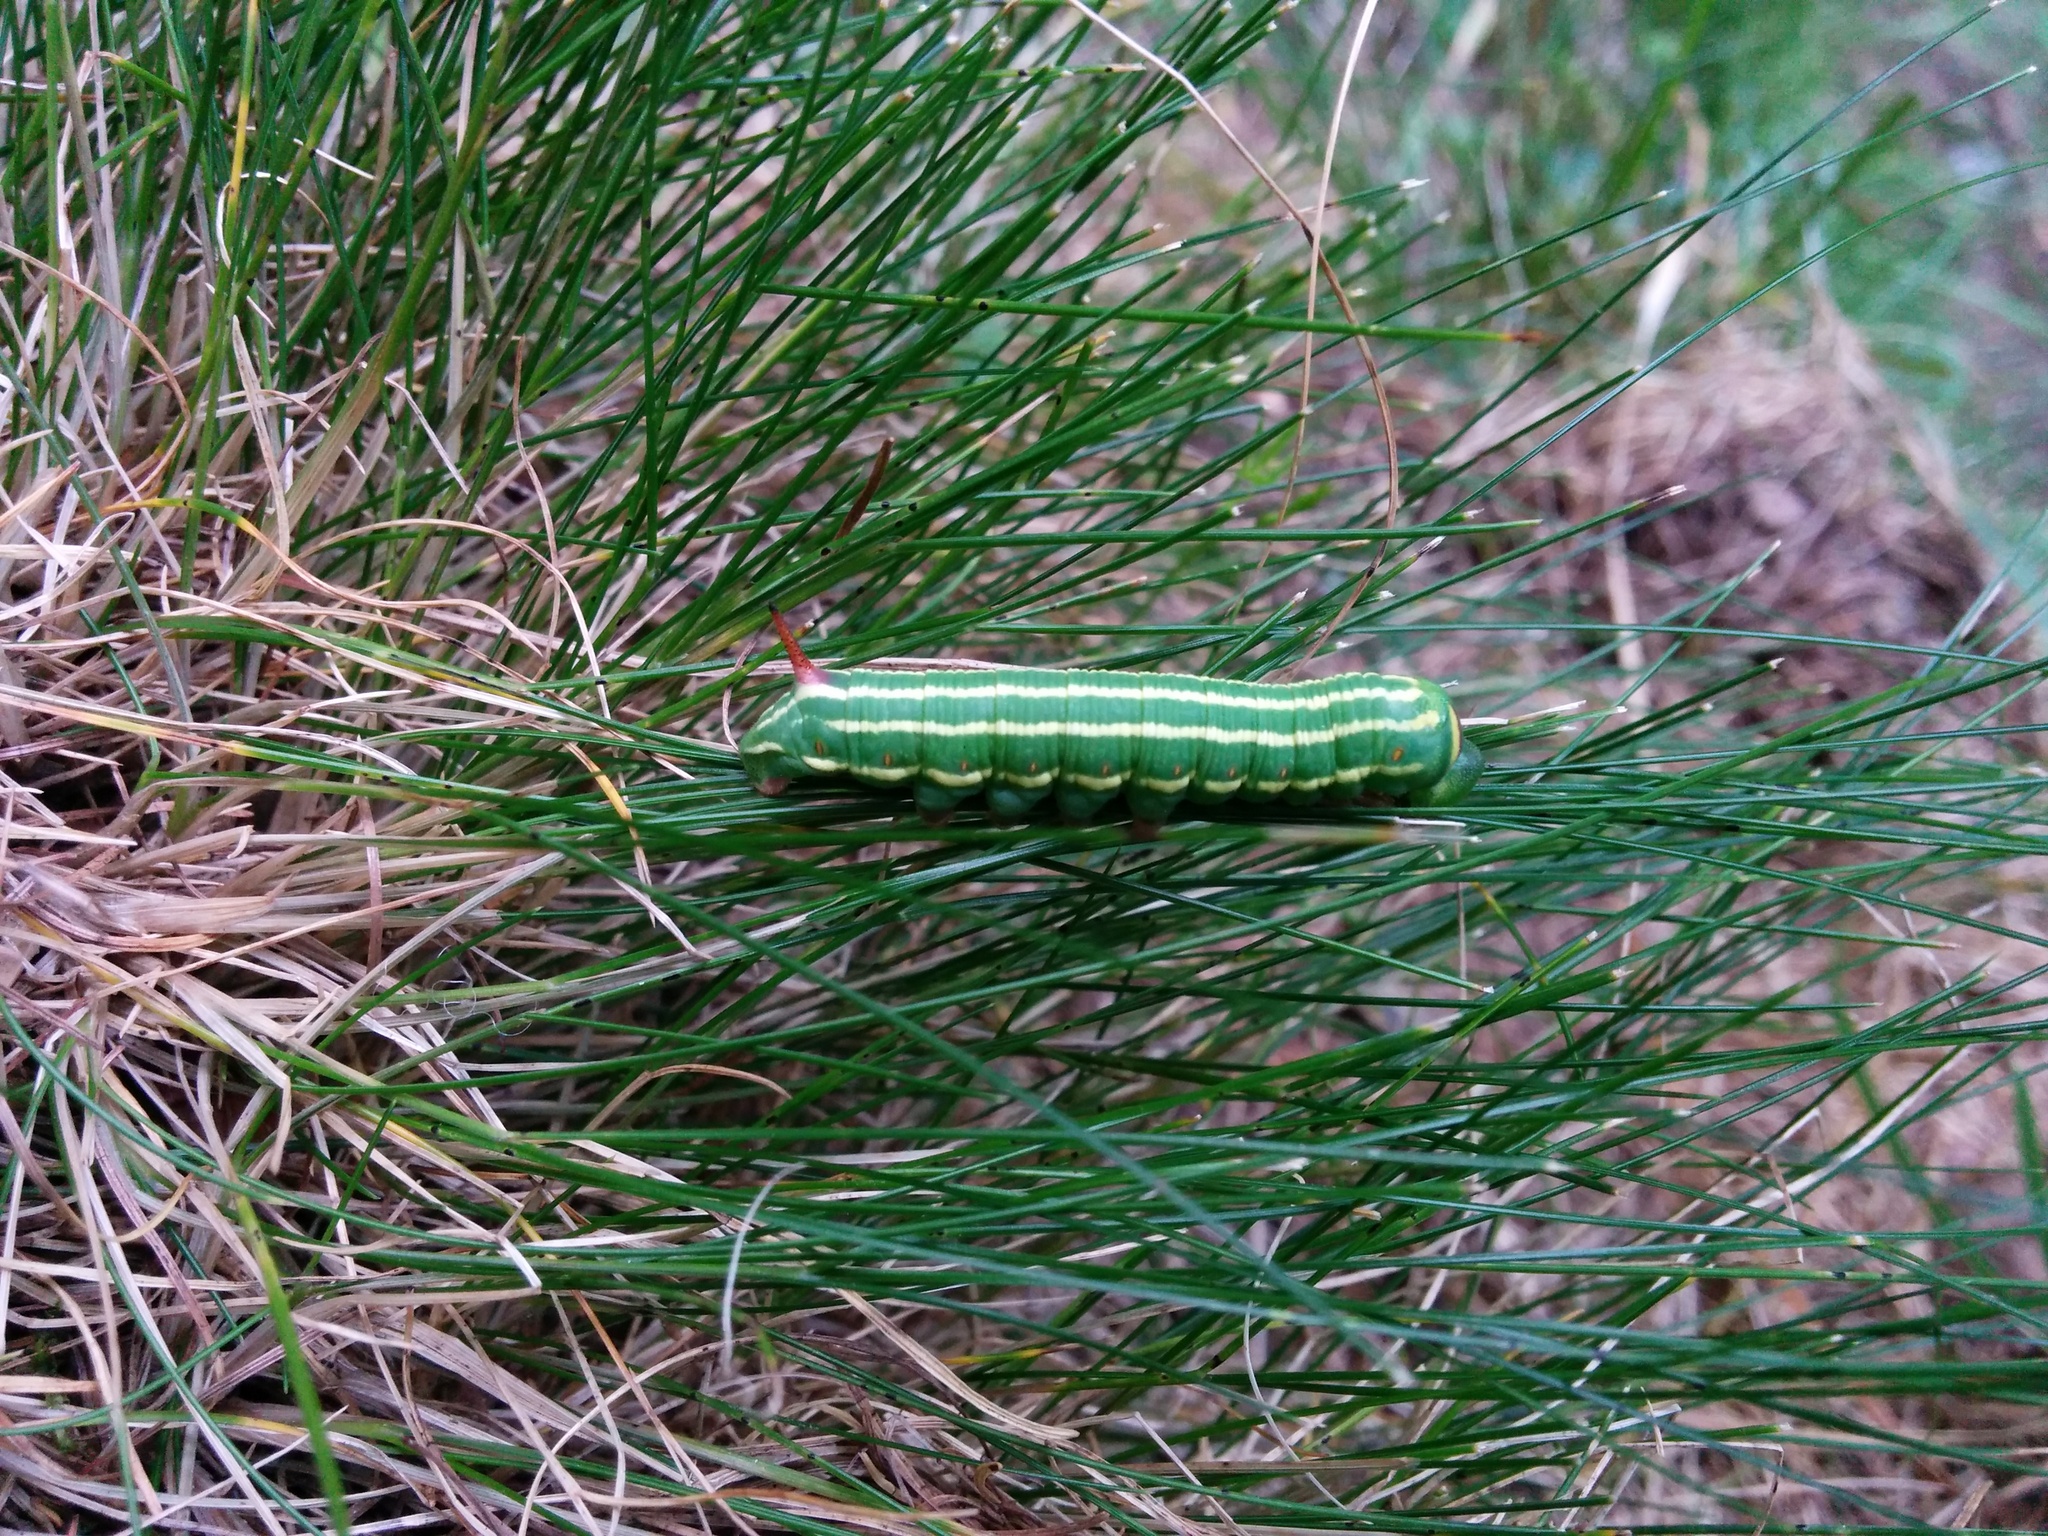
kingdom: Animalia
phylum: Arthropoda
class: Insecta
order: Lepidoptera
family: Sphingidae
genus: Sphinx
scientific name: Sphinx pinastri
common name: Pine hawk-moth
